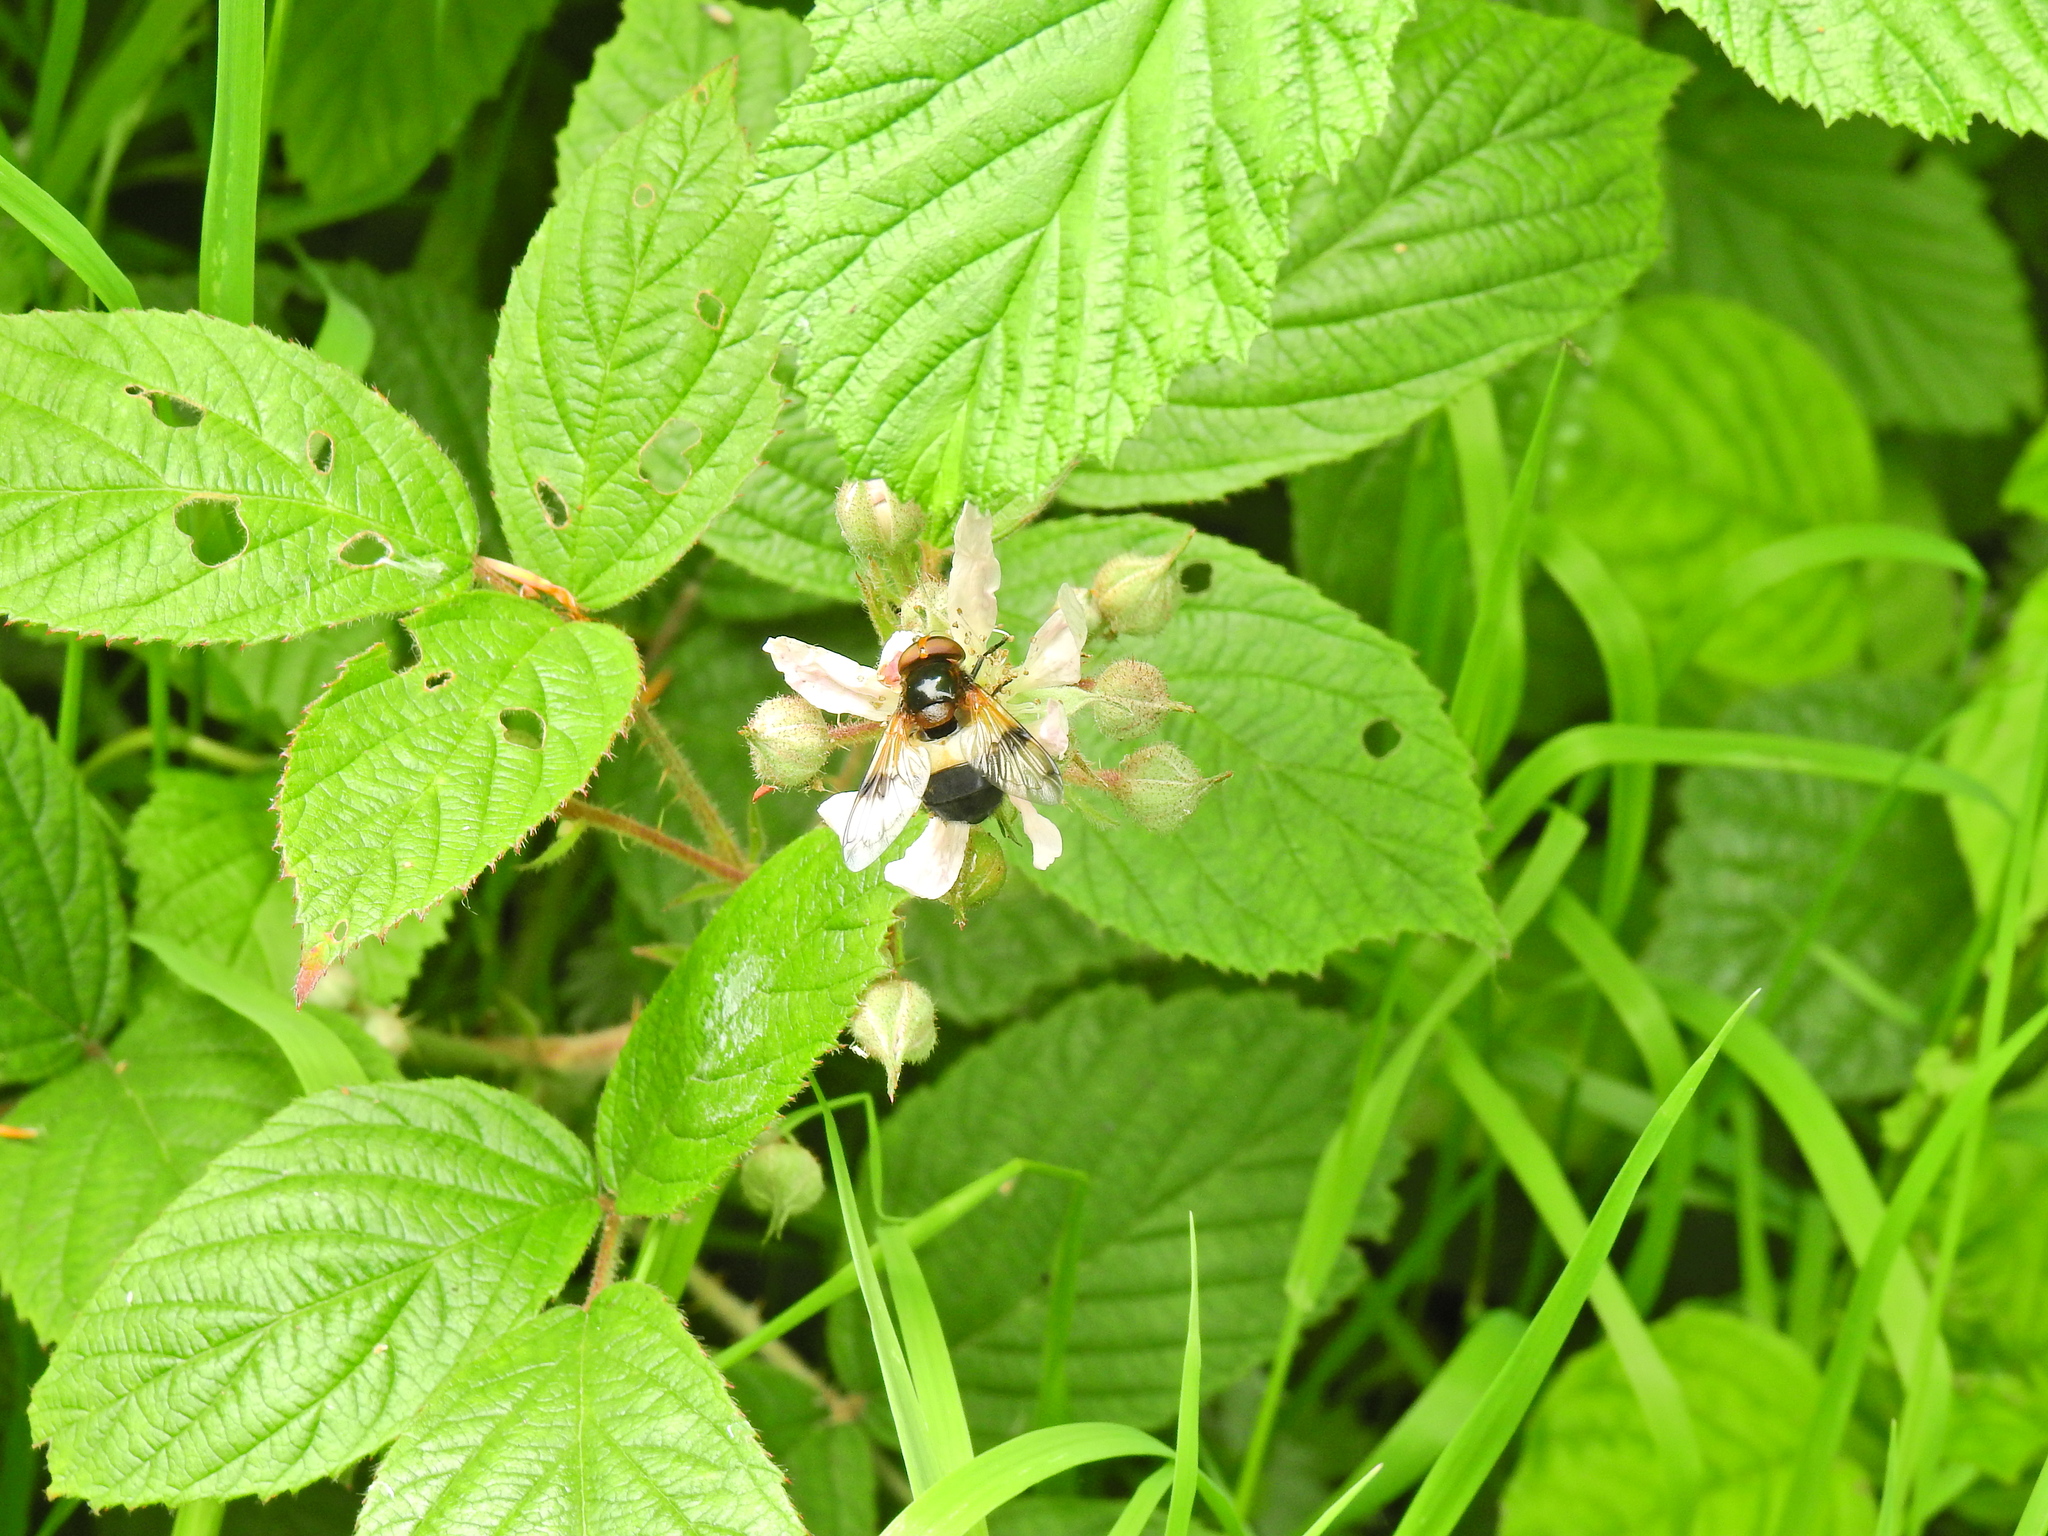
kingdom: Animalia
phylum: Arthropoda
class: Insecta
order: Diptera
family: Syrphidae
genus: Volucella
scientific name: Volucella pellucens
